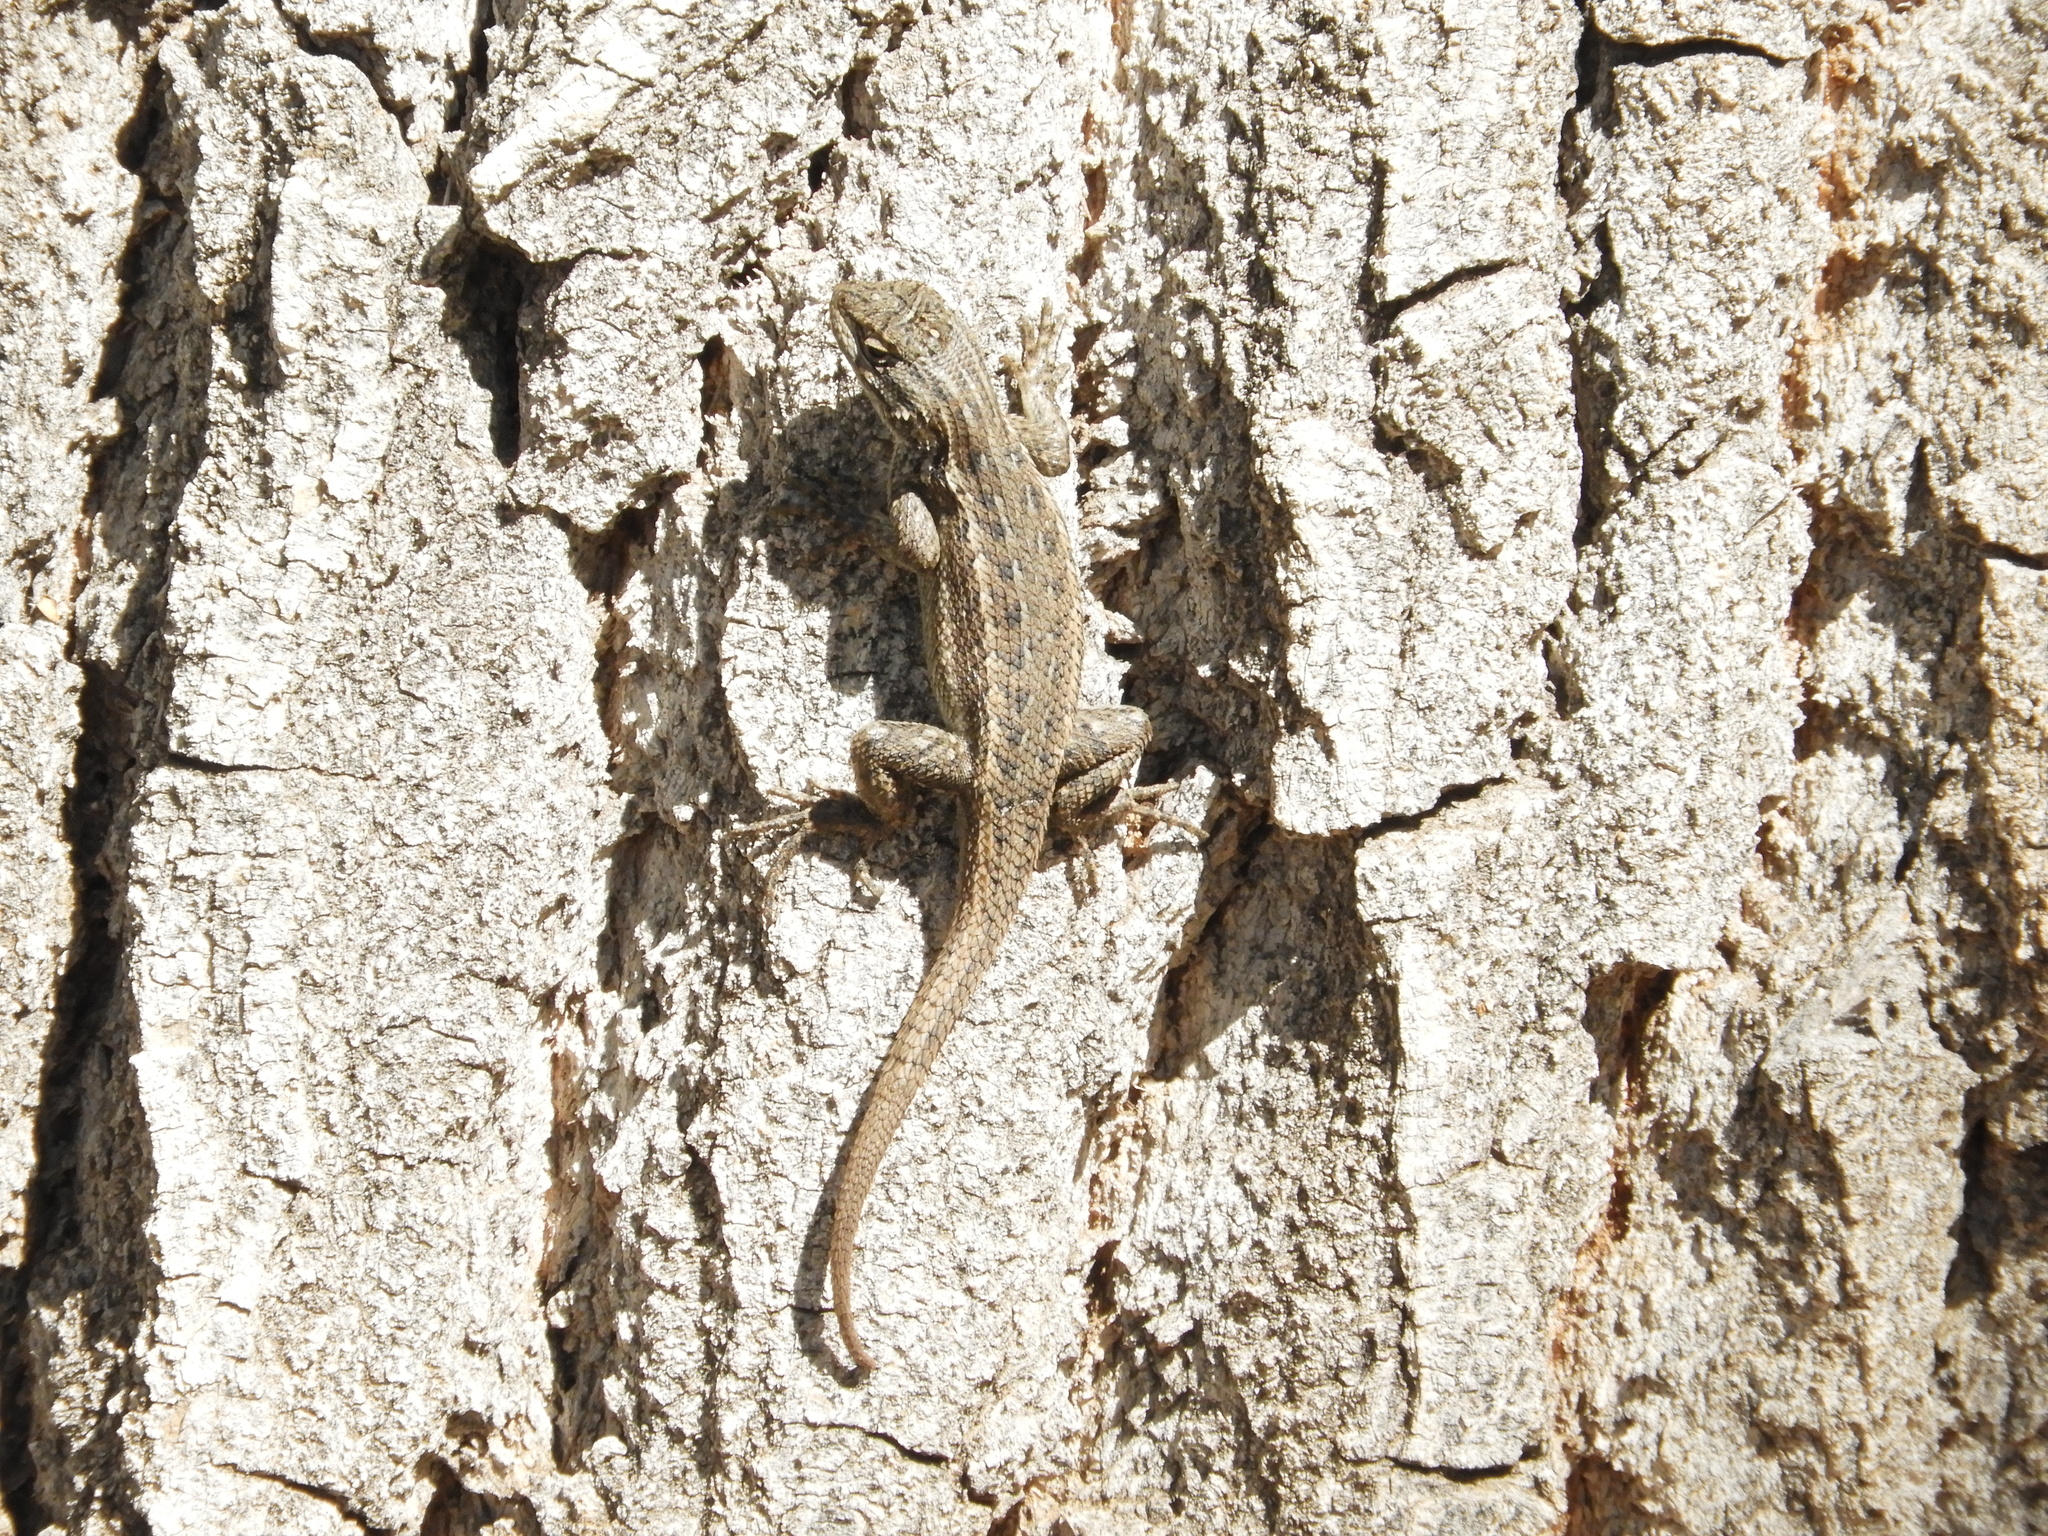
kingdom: Animalia
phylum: Chordata
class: Squamata
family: Phrynosomatidae
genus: Sceloporus
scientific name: Sceloporus cowlesi
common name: White sands prairie lizard
